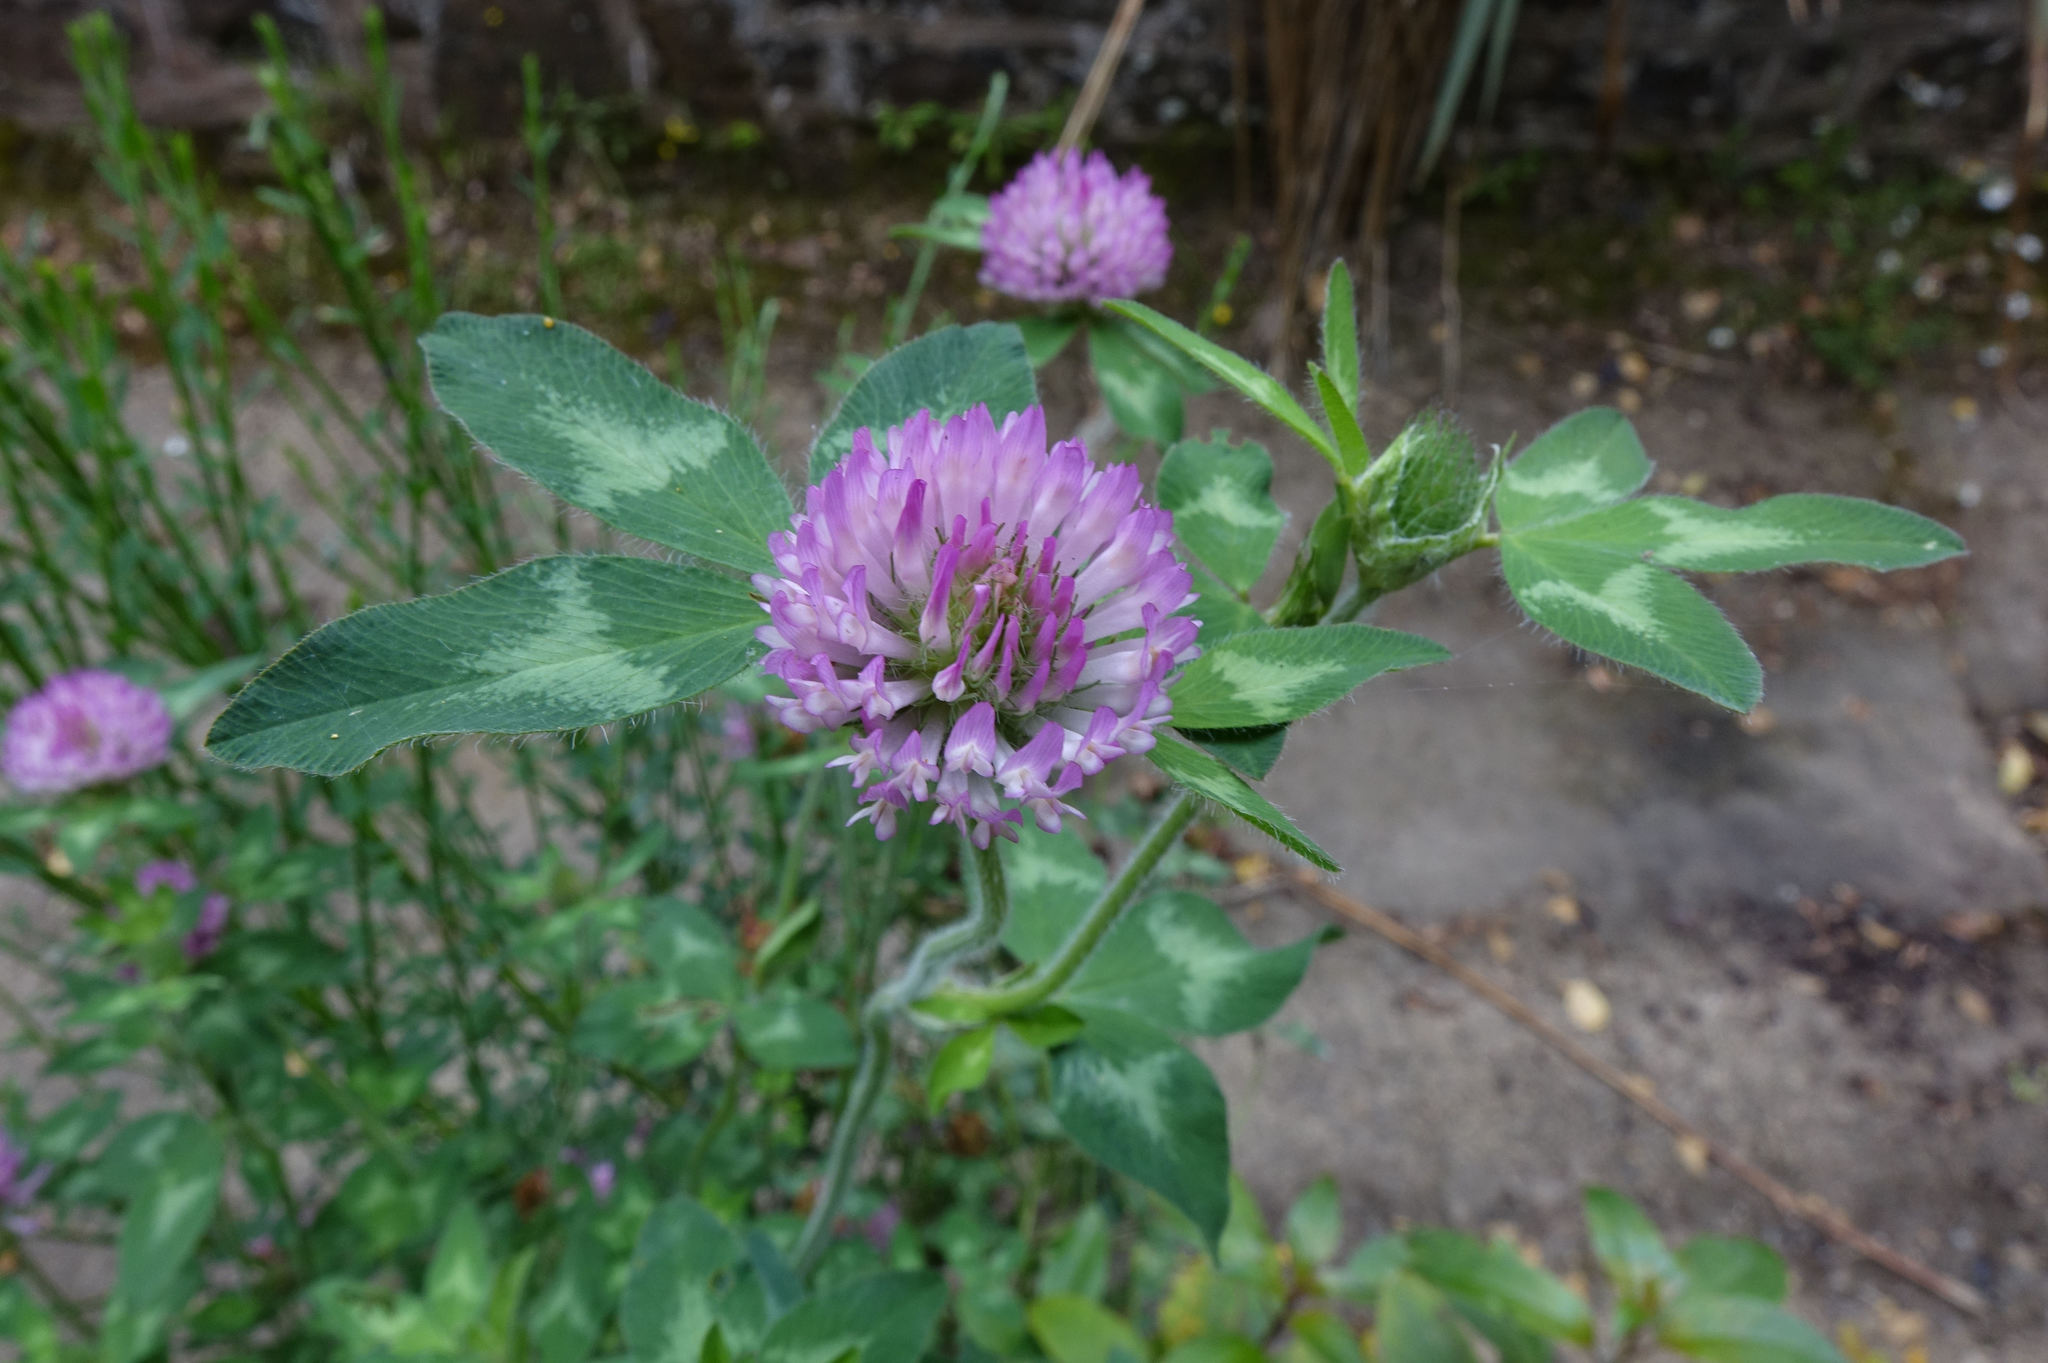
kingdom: Plantae
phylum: Tracheophyta
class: Magnoliopsida
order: Fabales
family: Fabaceae
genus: Trifolium
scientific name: Trifolium pratense
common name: Red clover
